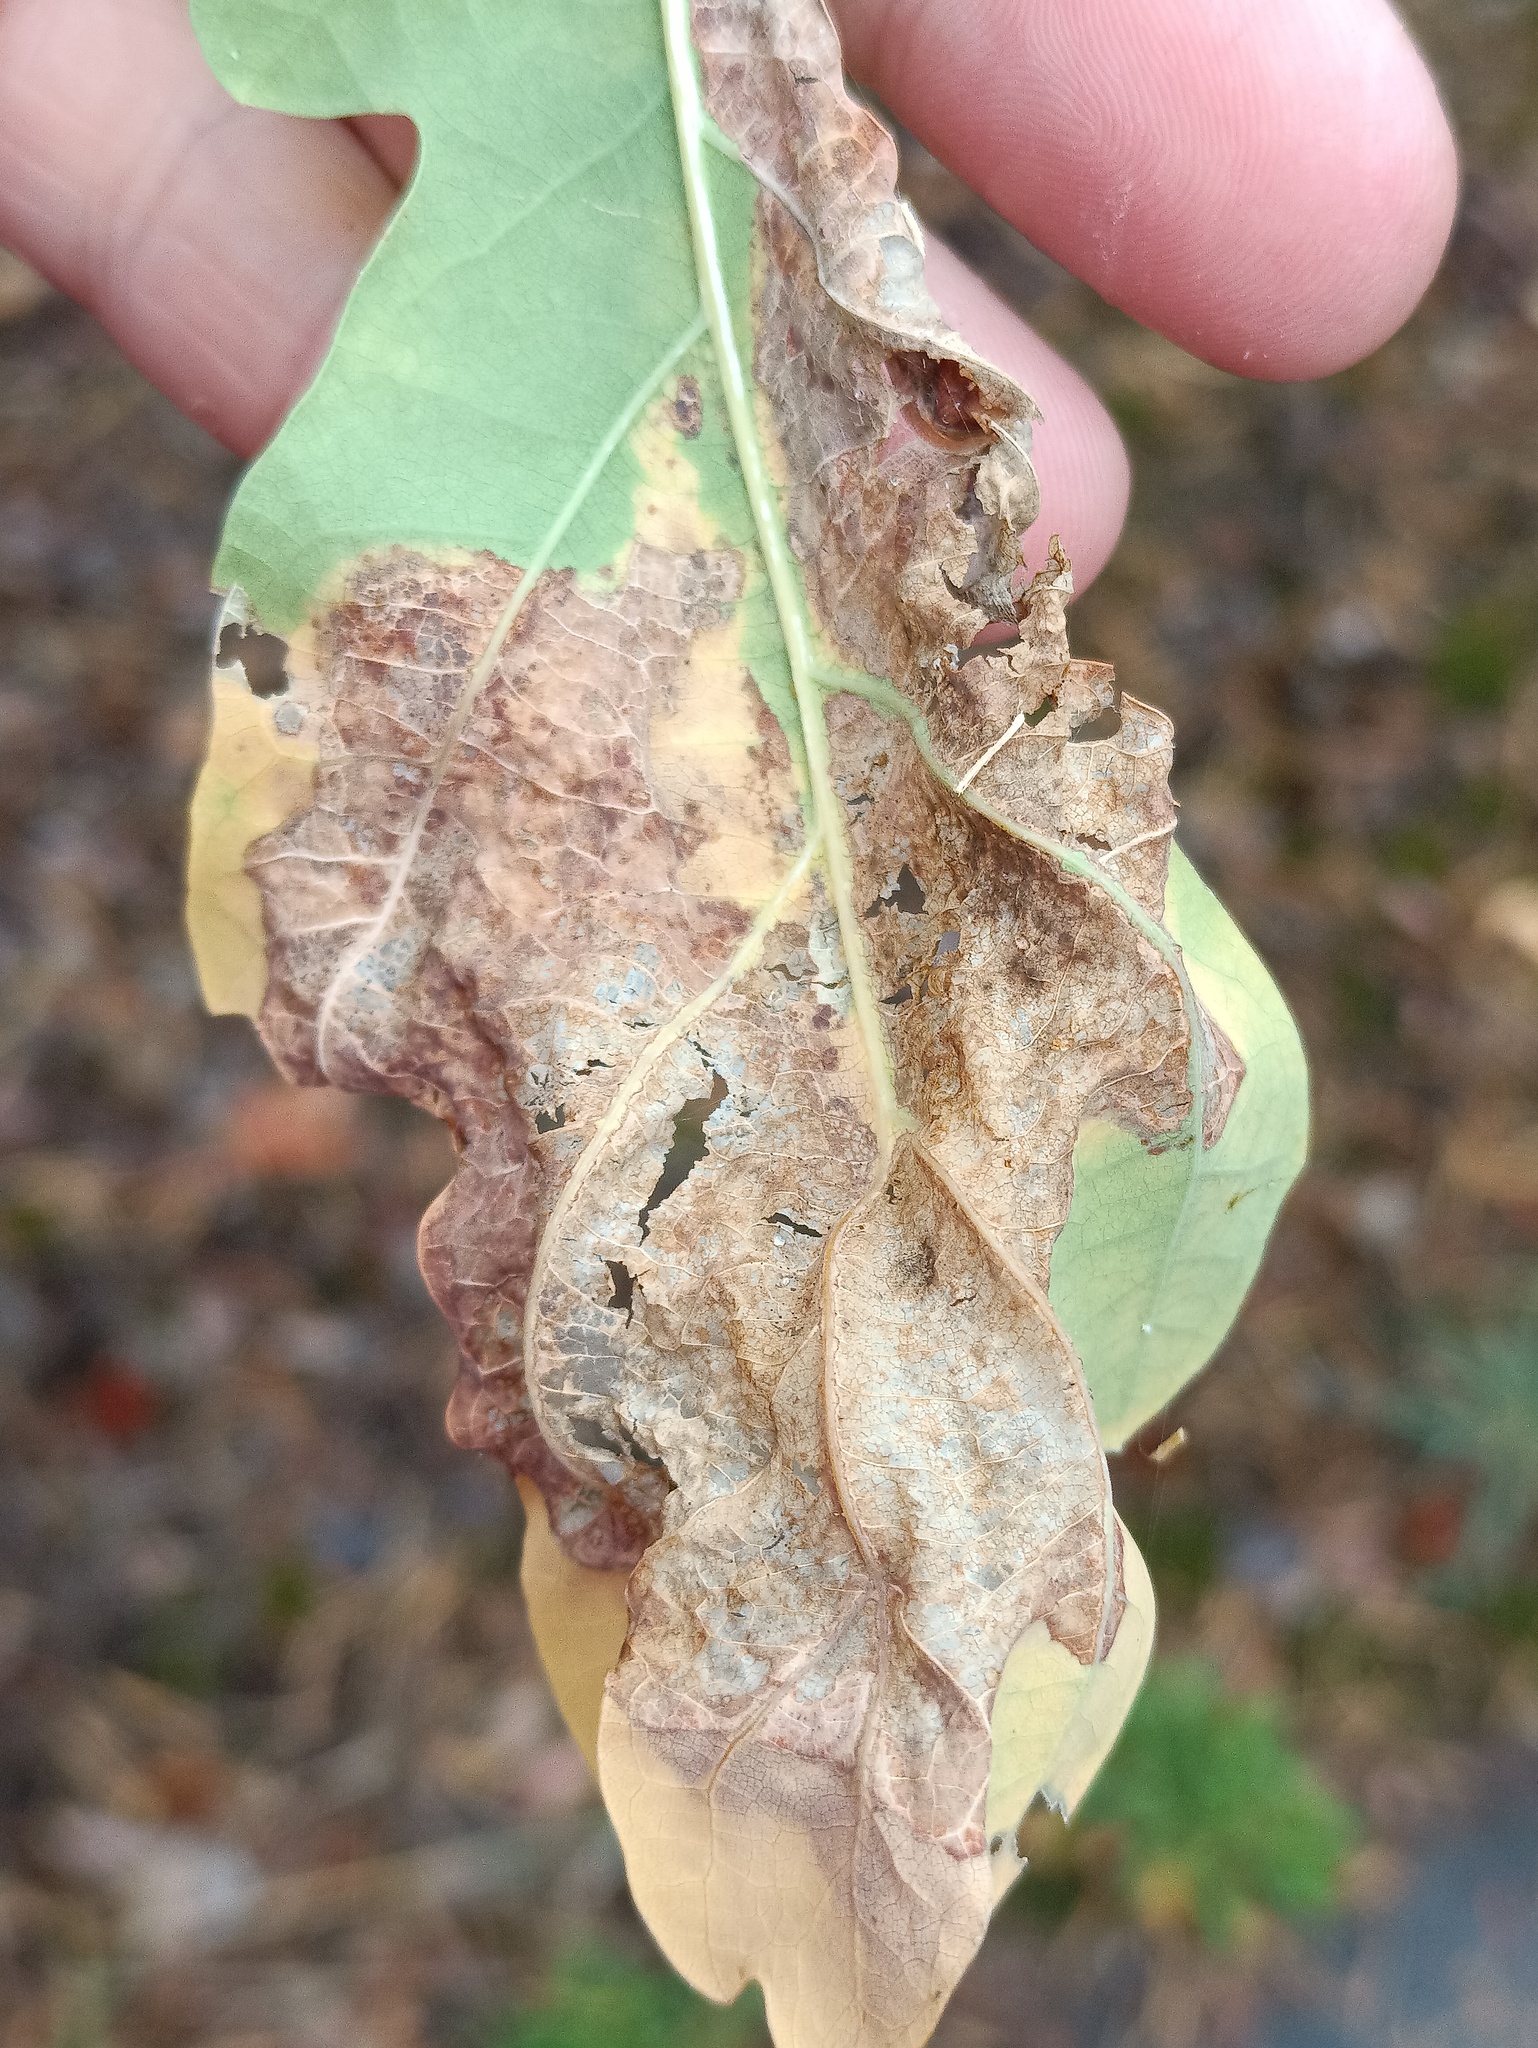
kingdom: Animalia
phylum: Arthropoda
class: Insecta
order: Lepidoptera
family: Gracillariidae
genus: Acrocercops
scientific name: Acrocercops brongniardella
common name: Brown oak slender
